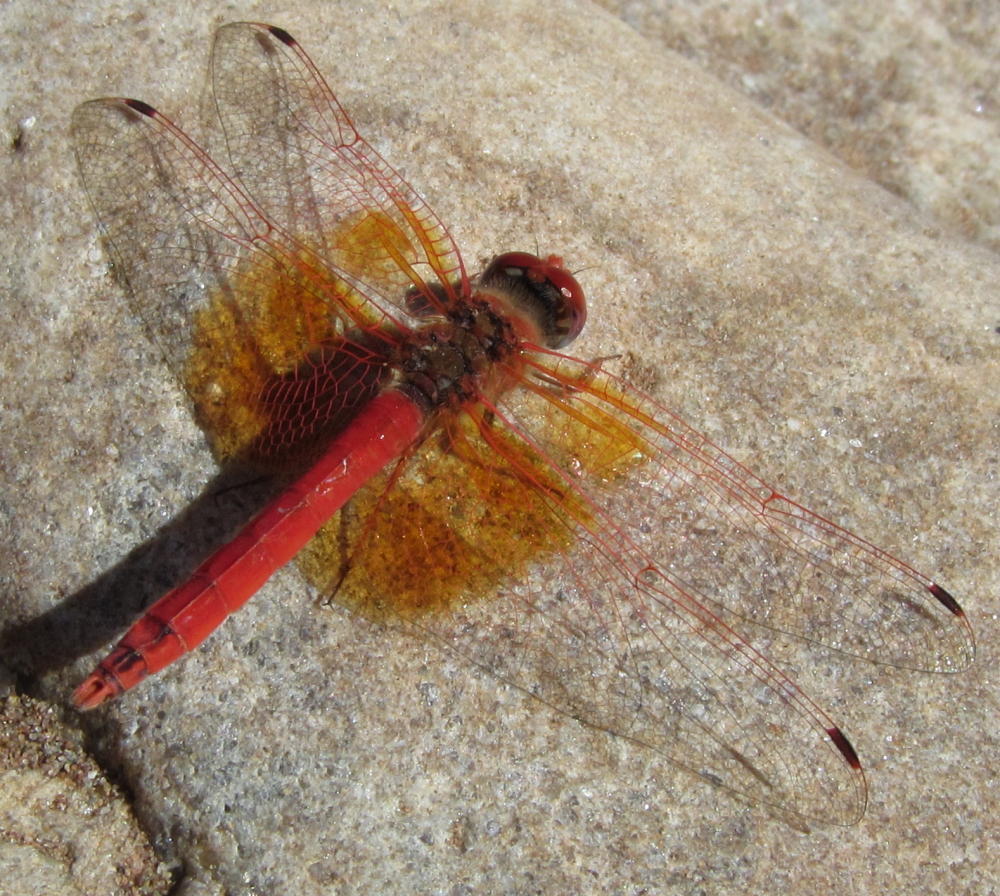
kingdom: Animalia
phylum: Arthropoda
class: Insecta
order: Odonata
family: Libellulidae
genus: Trithemis
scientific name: Trithemis kirbyi
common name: Kirby's dropwing
